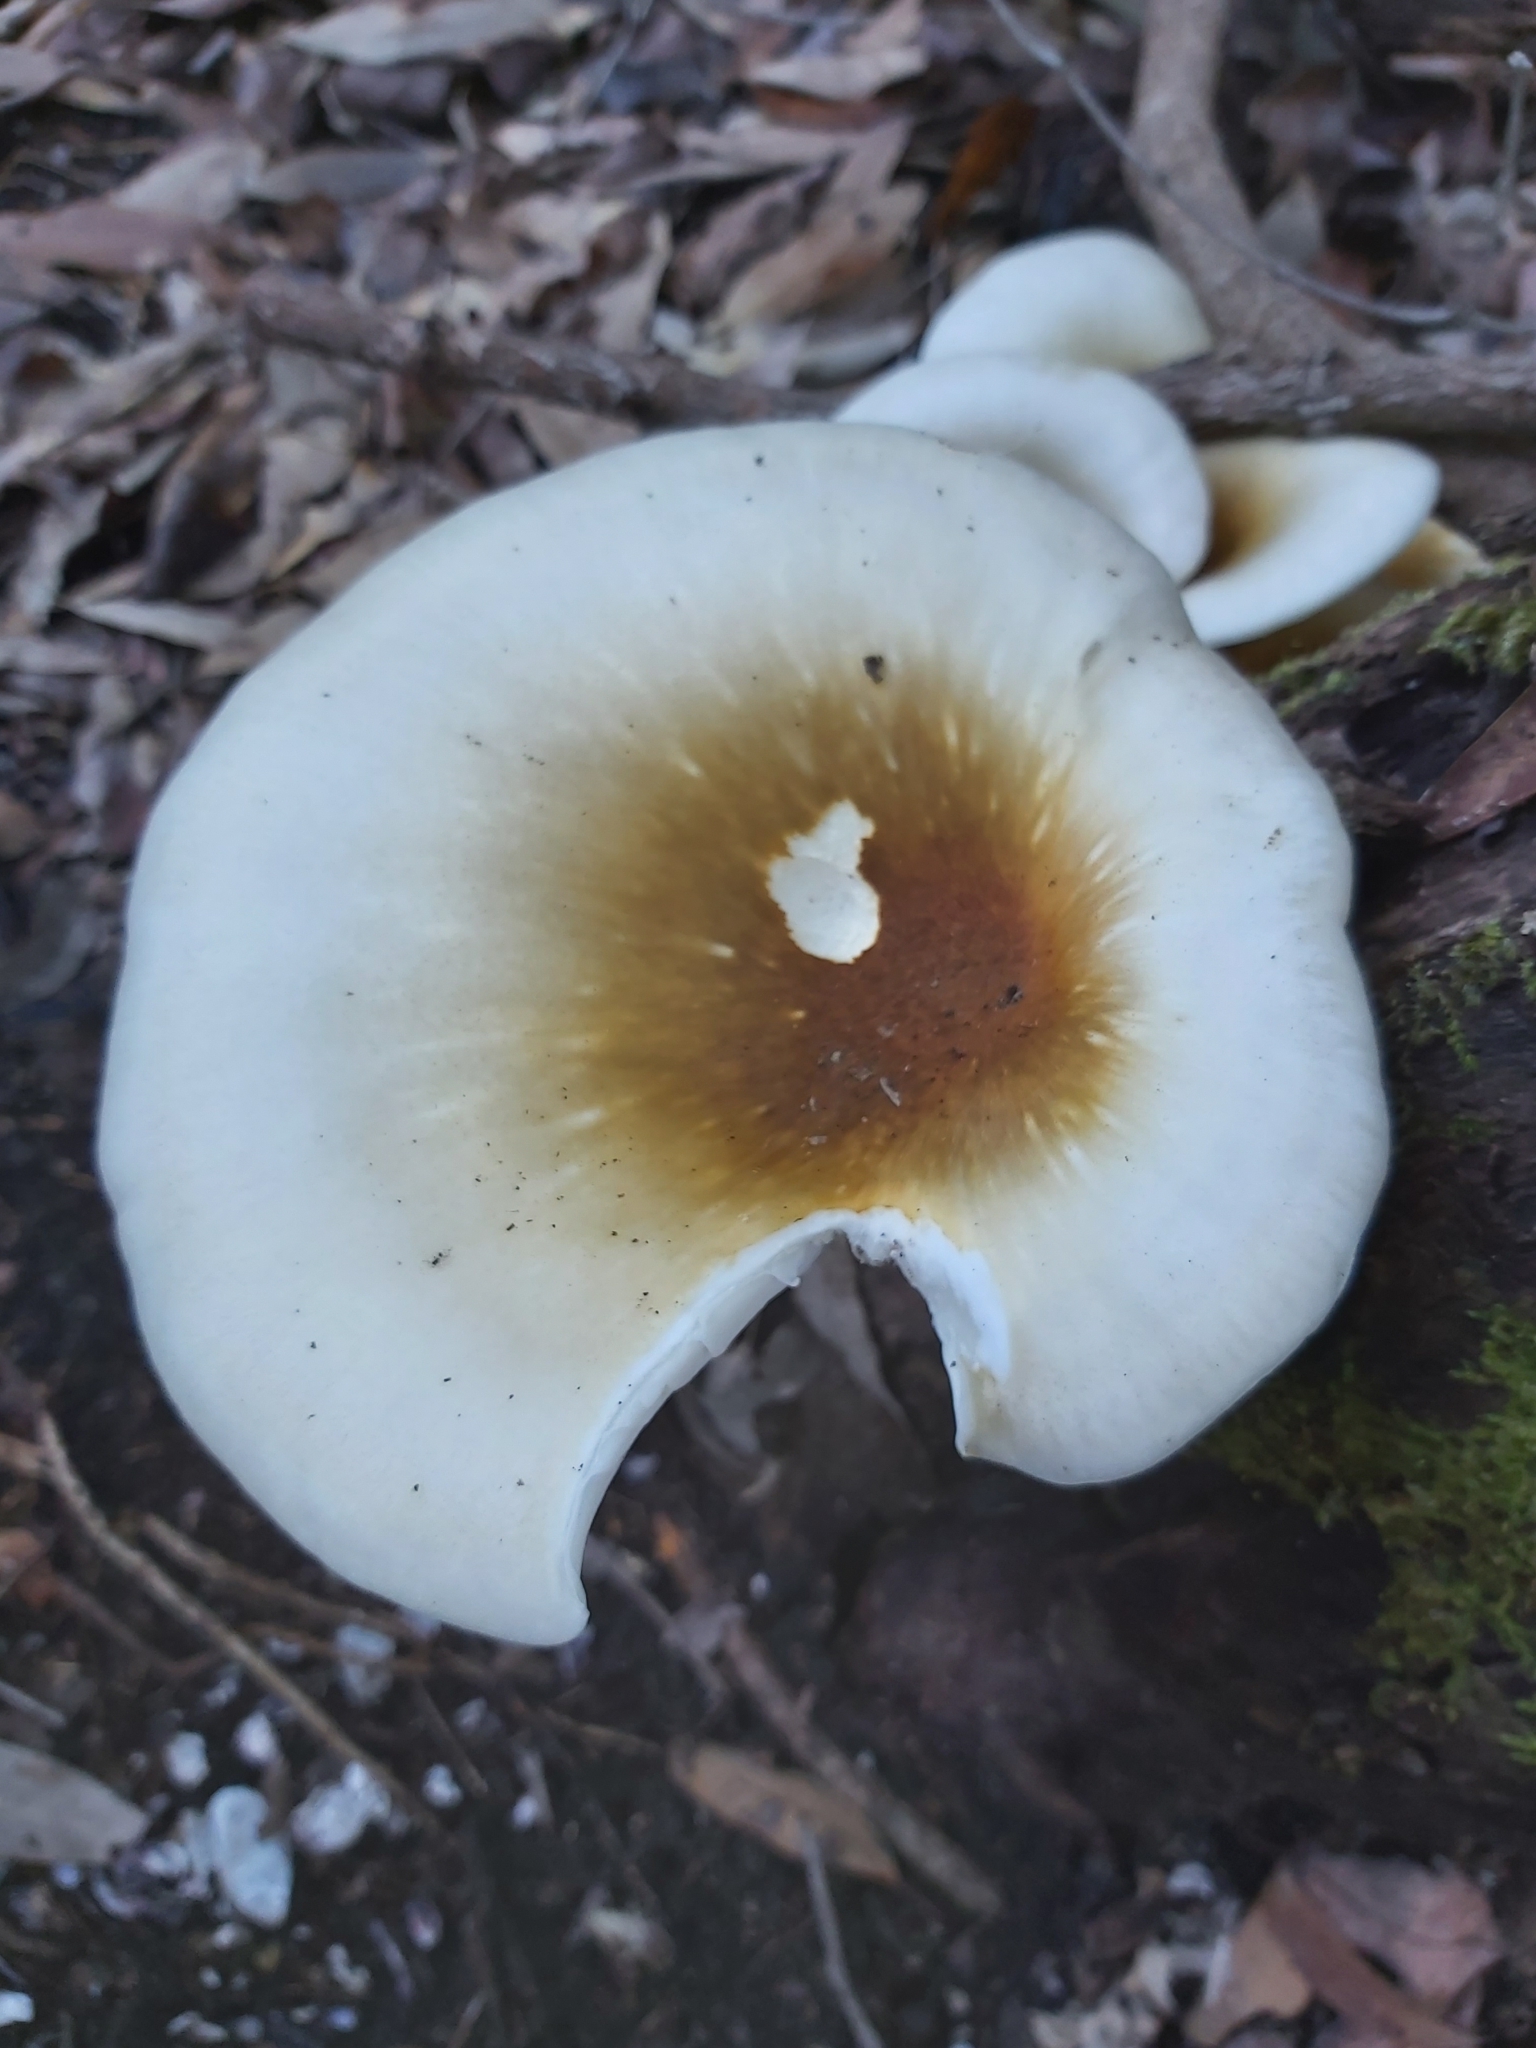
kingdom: Fungi
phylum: Basidiomycota
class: Agaricomycetes
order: Agaricales
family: Omphalotaceae
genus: Omphalotus
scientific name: Omphalotus nidiformis
